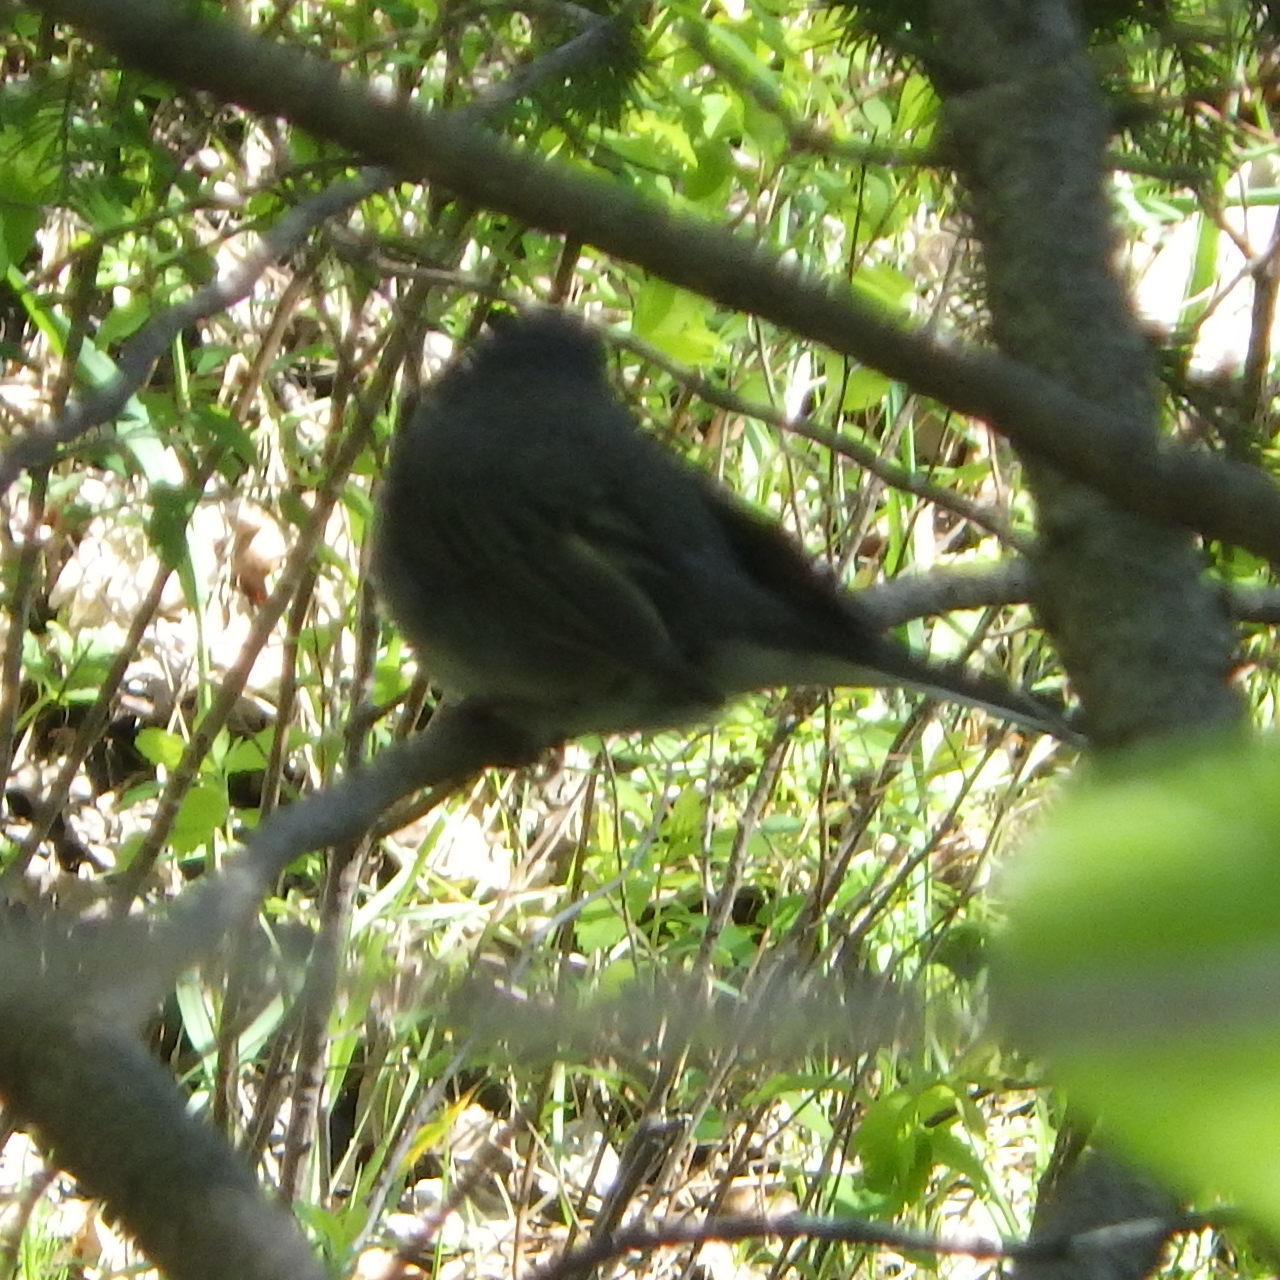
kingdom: Animalia
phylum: Chordata
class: Aves
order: Passeriformes
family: Passerellidae
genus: Junco
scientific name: Junco hyemalis
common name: Dark-eyed junco
